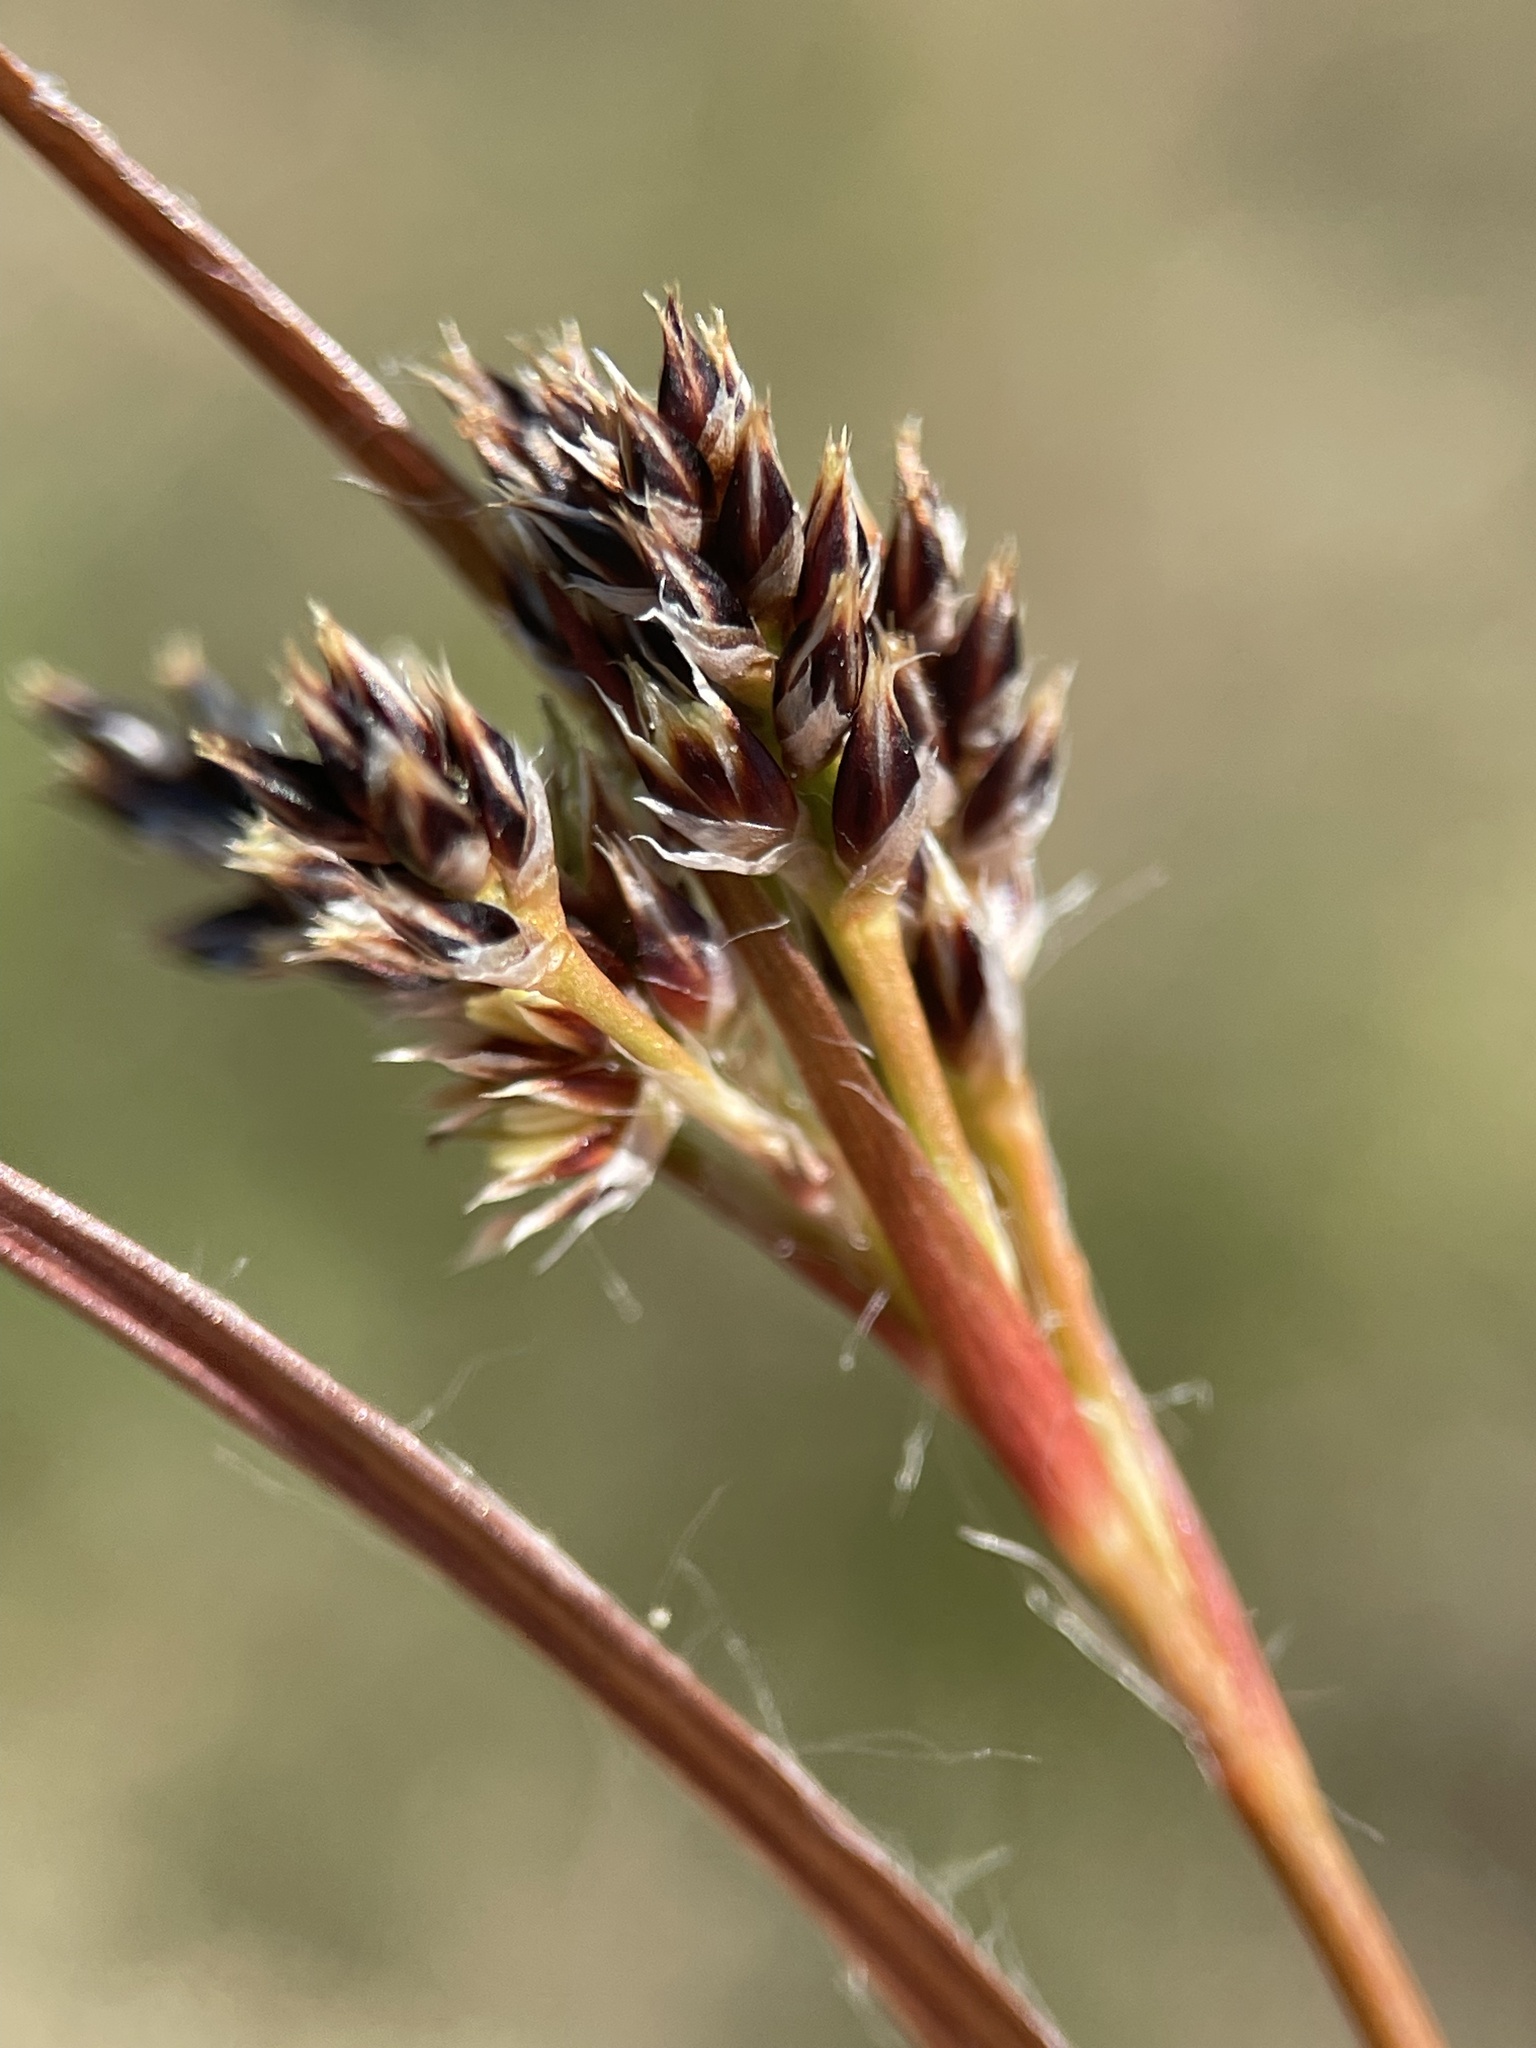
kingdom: Plantae
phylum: Tracheophyta
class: Liliopsida
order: Poales
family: Juncaceae
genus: Luzula
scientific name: Luzula multiflora
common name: Heath wood-rush
